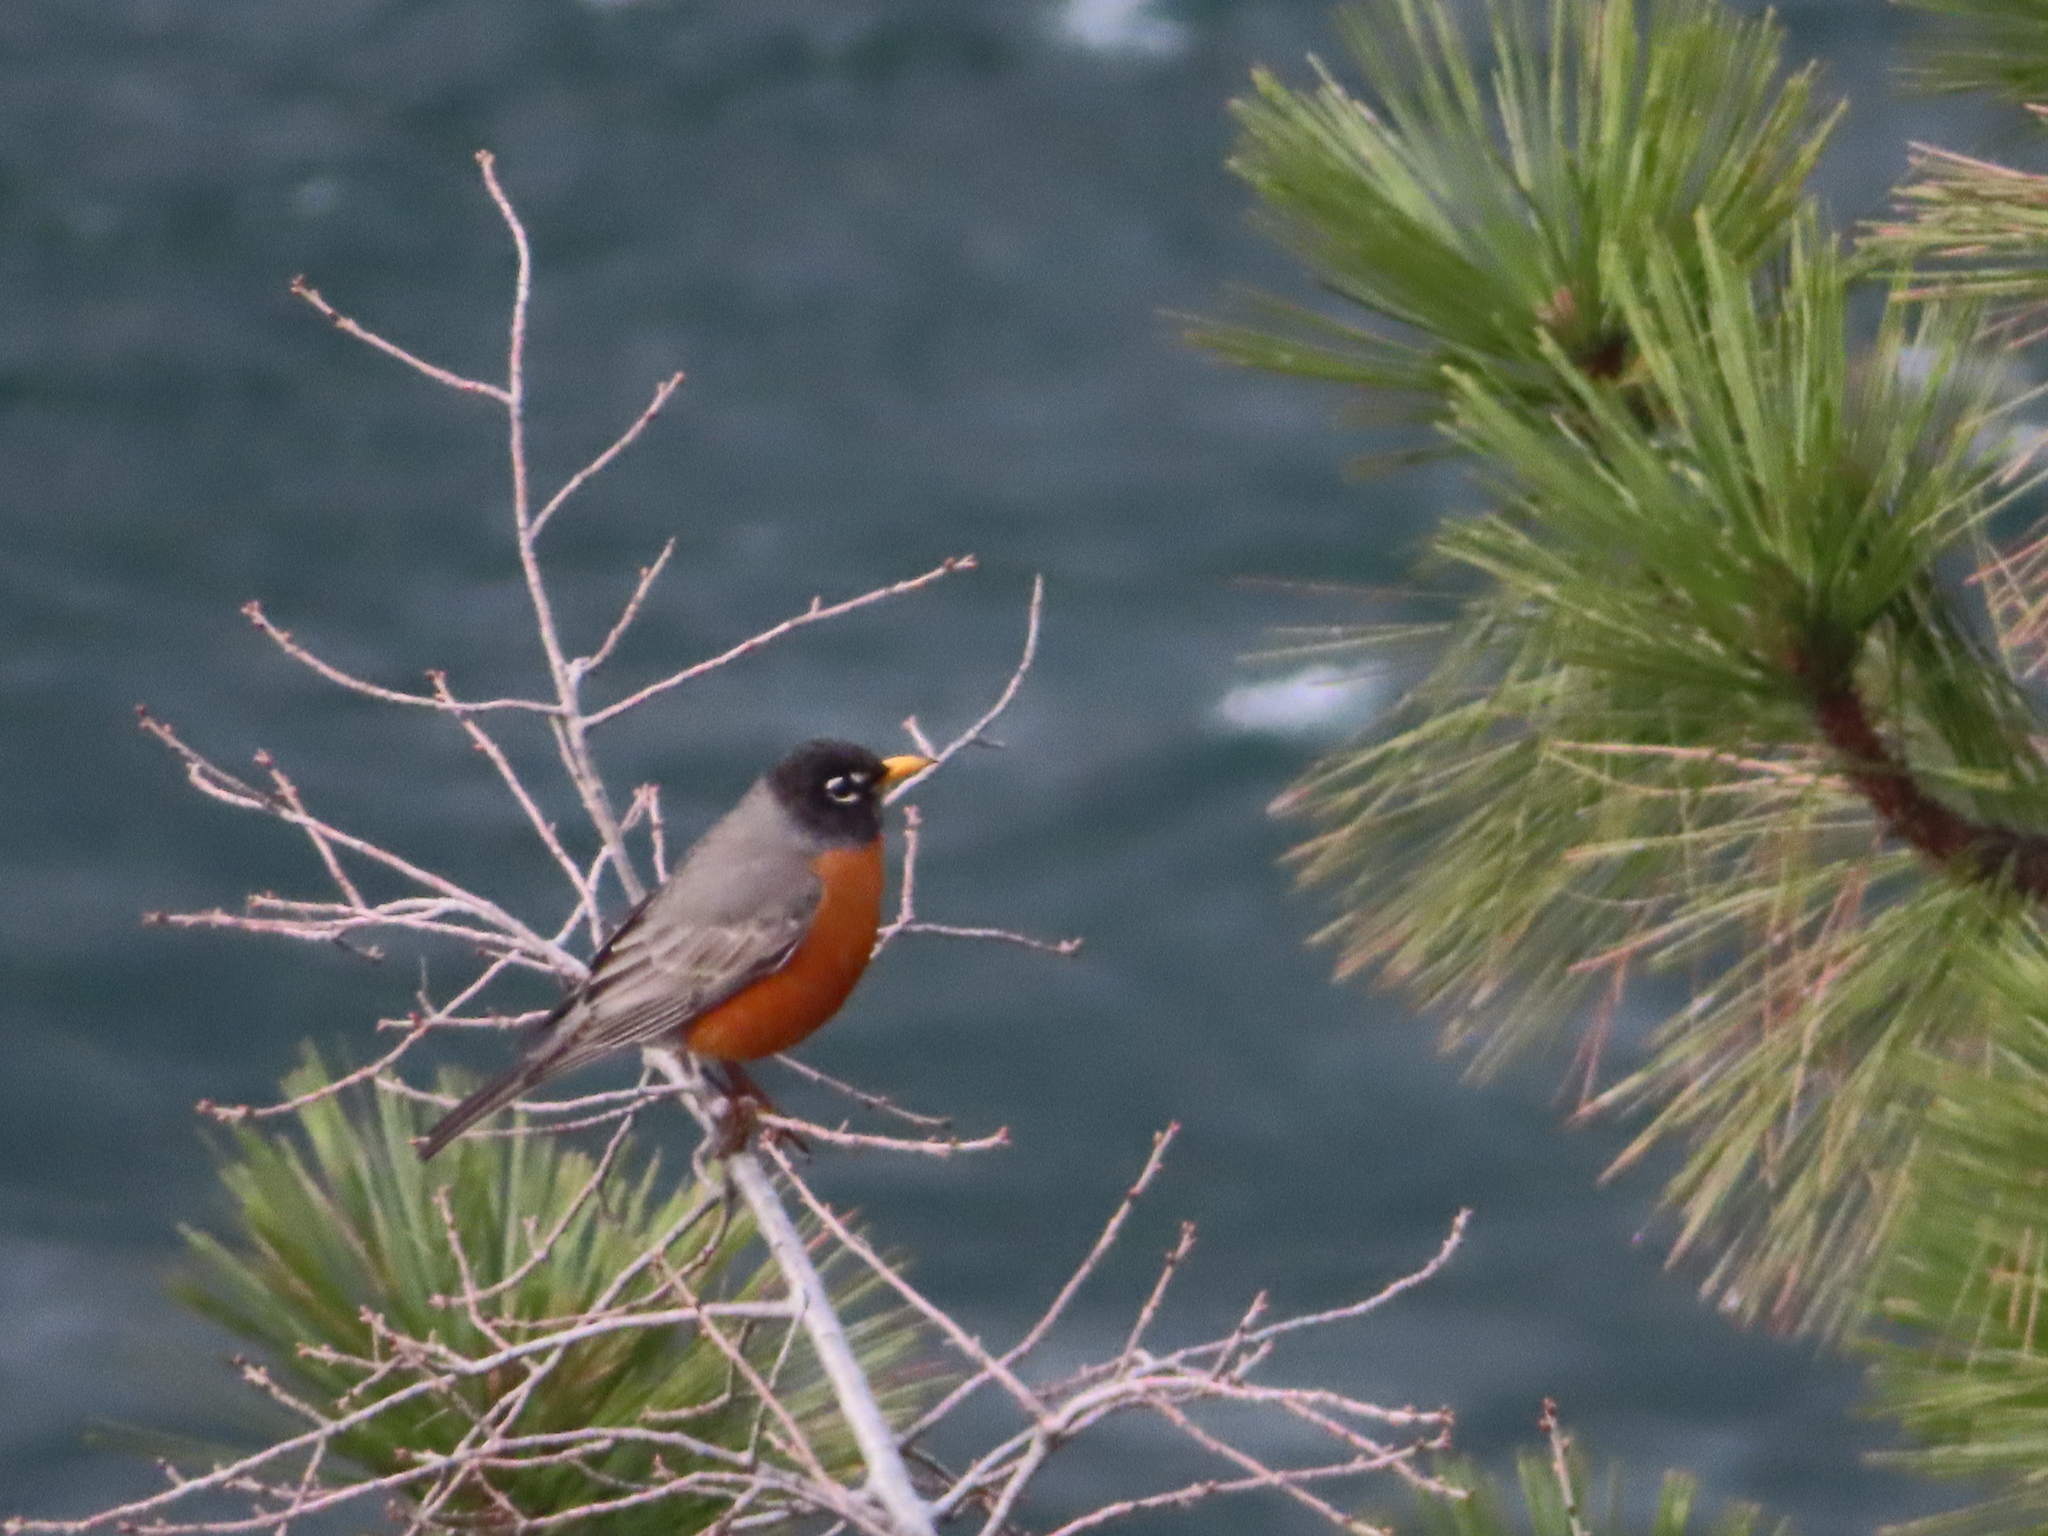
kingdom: Animalia
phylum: Chordata
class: Aves
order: Passeriformes
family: Turdidae
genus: Turdus
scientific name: Turdus migratorius
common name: American robin
